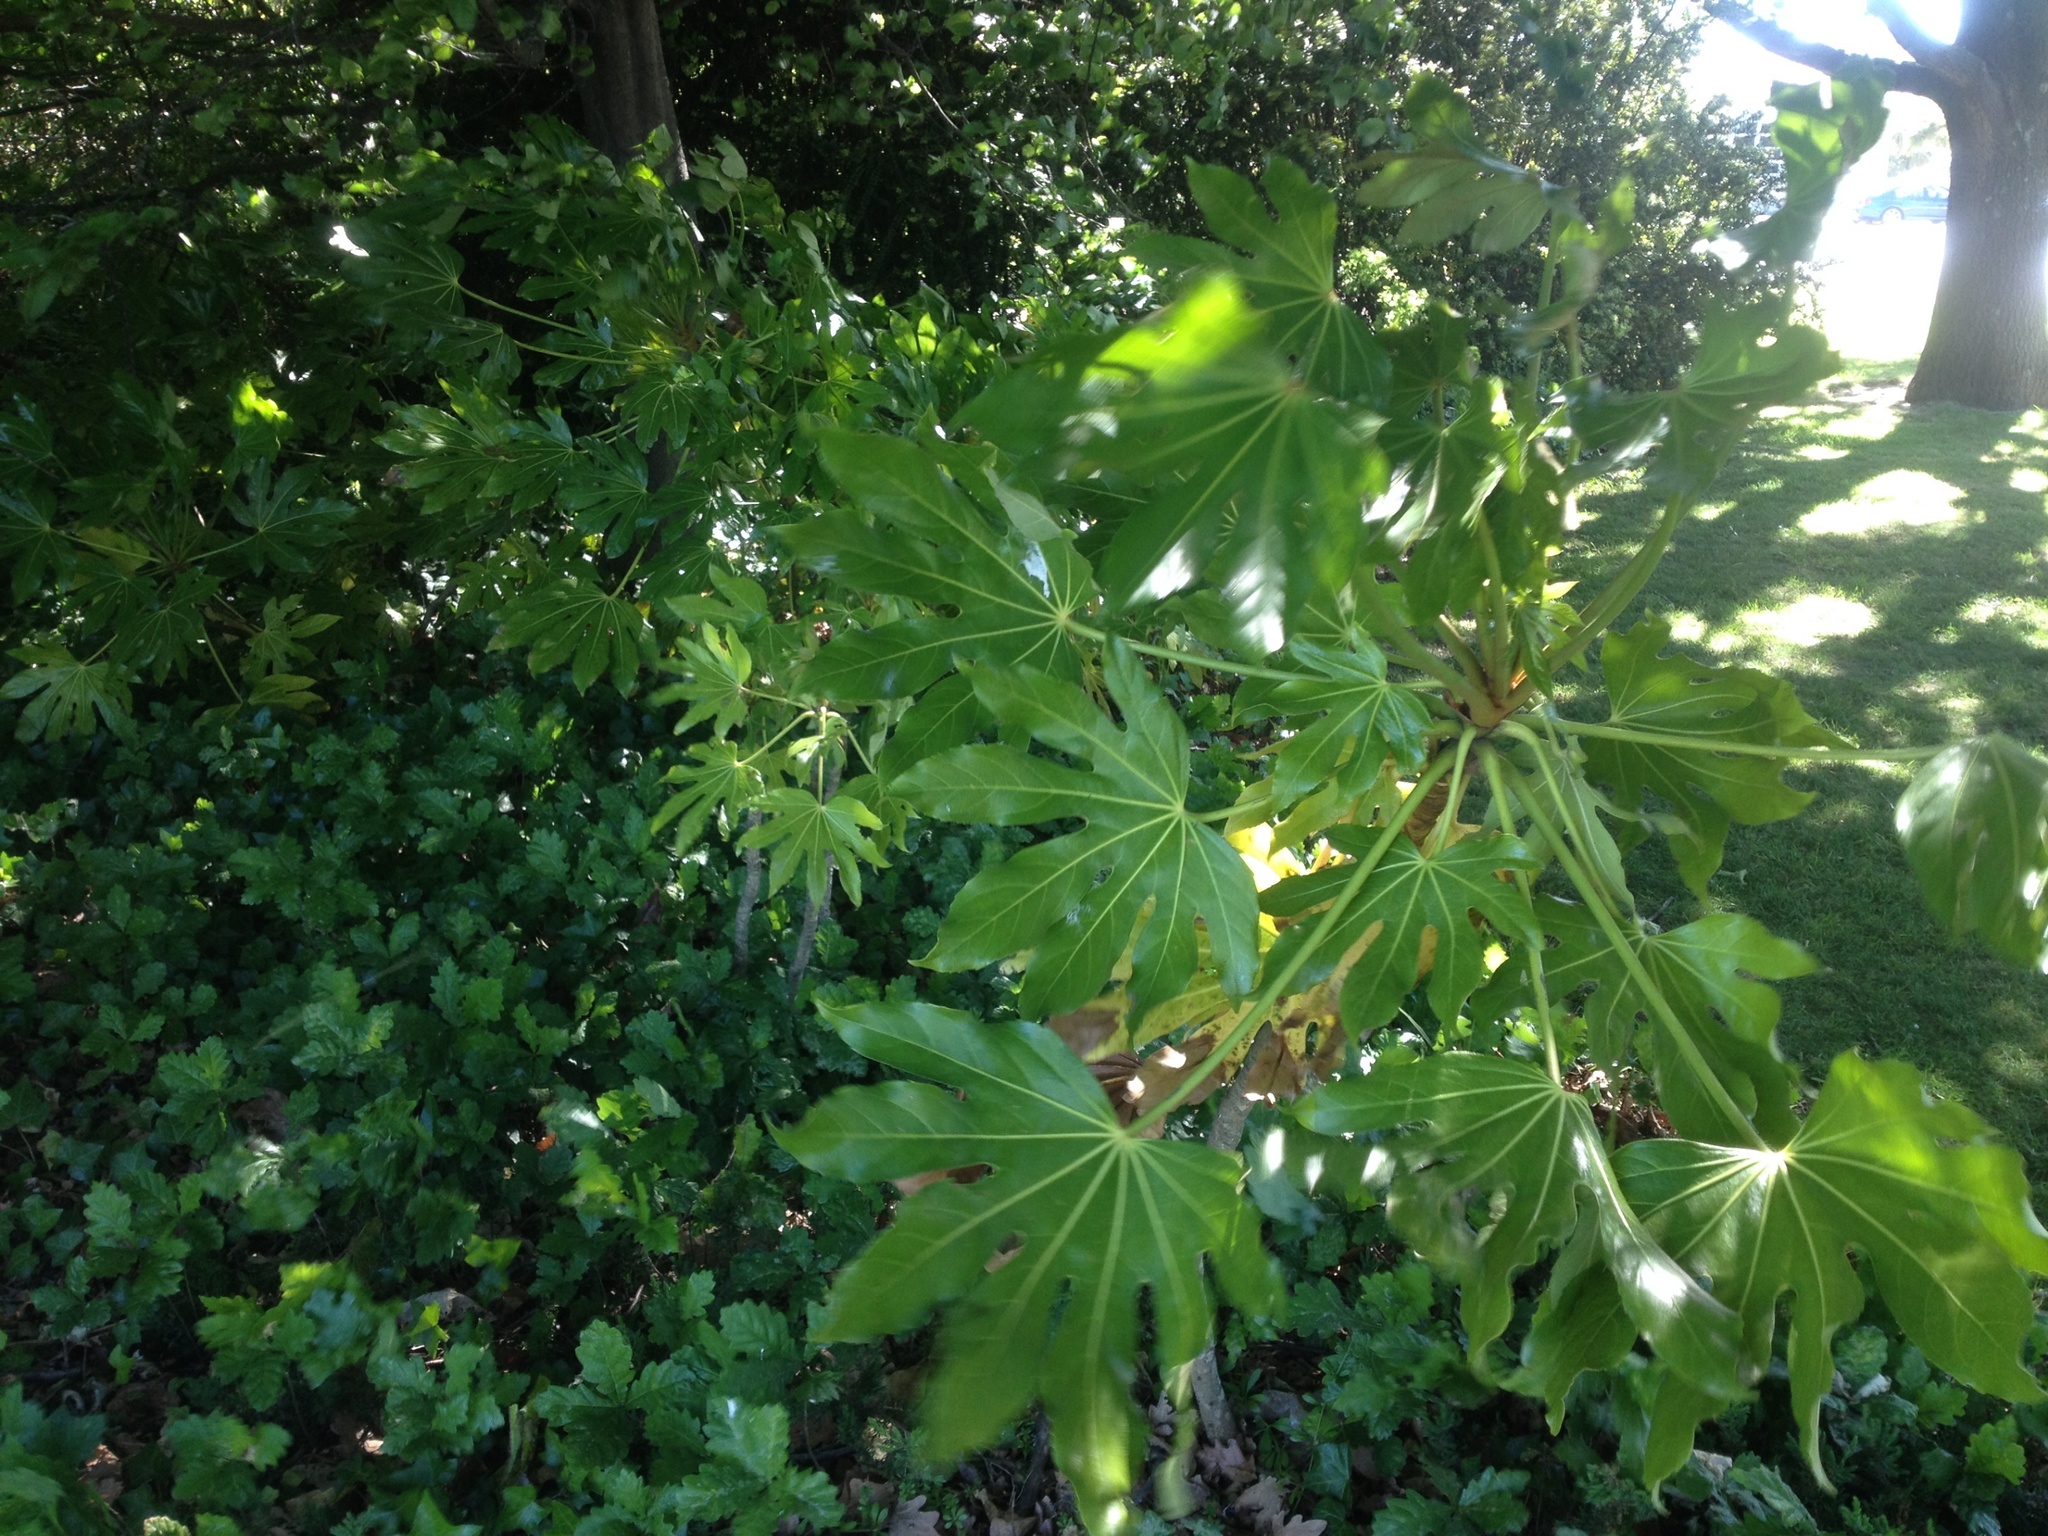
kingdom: Plantae
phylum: Tracheophyta
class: Magnoliopsida
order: Apiales
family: Araliaceae
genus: Fatsia
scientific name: Fatsia japonica
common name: Fatsia
